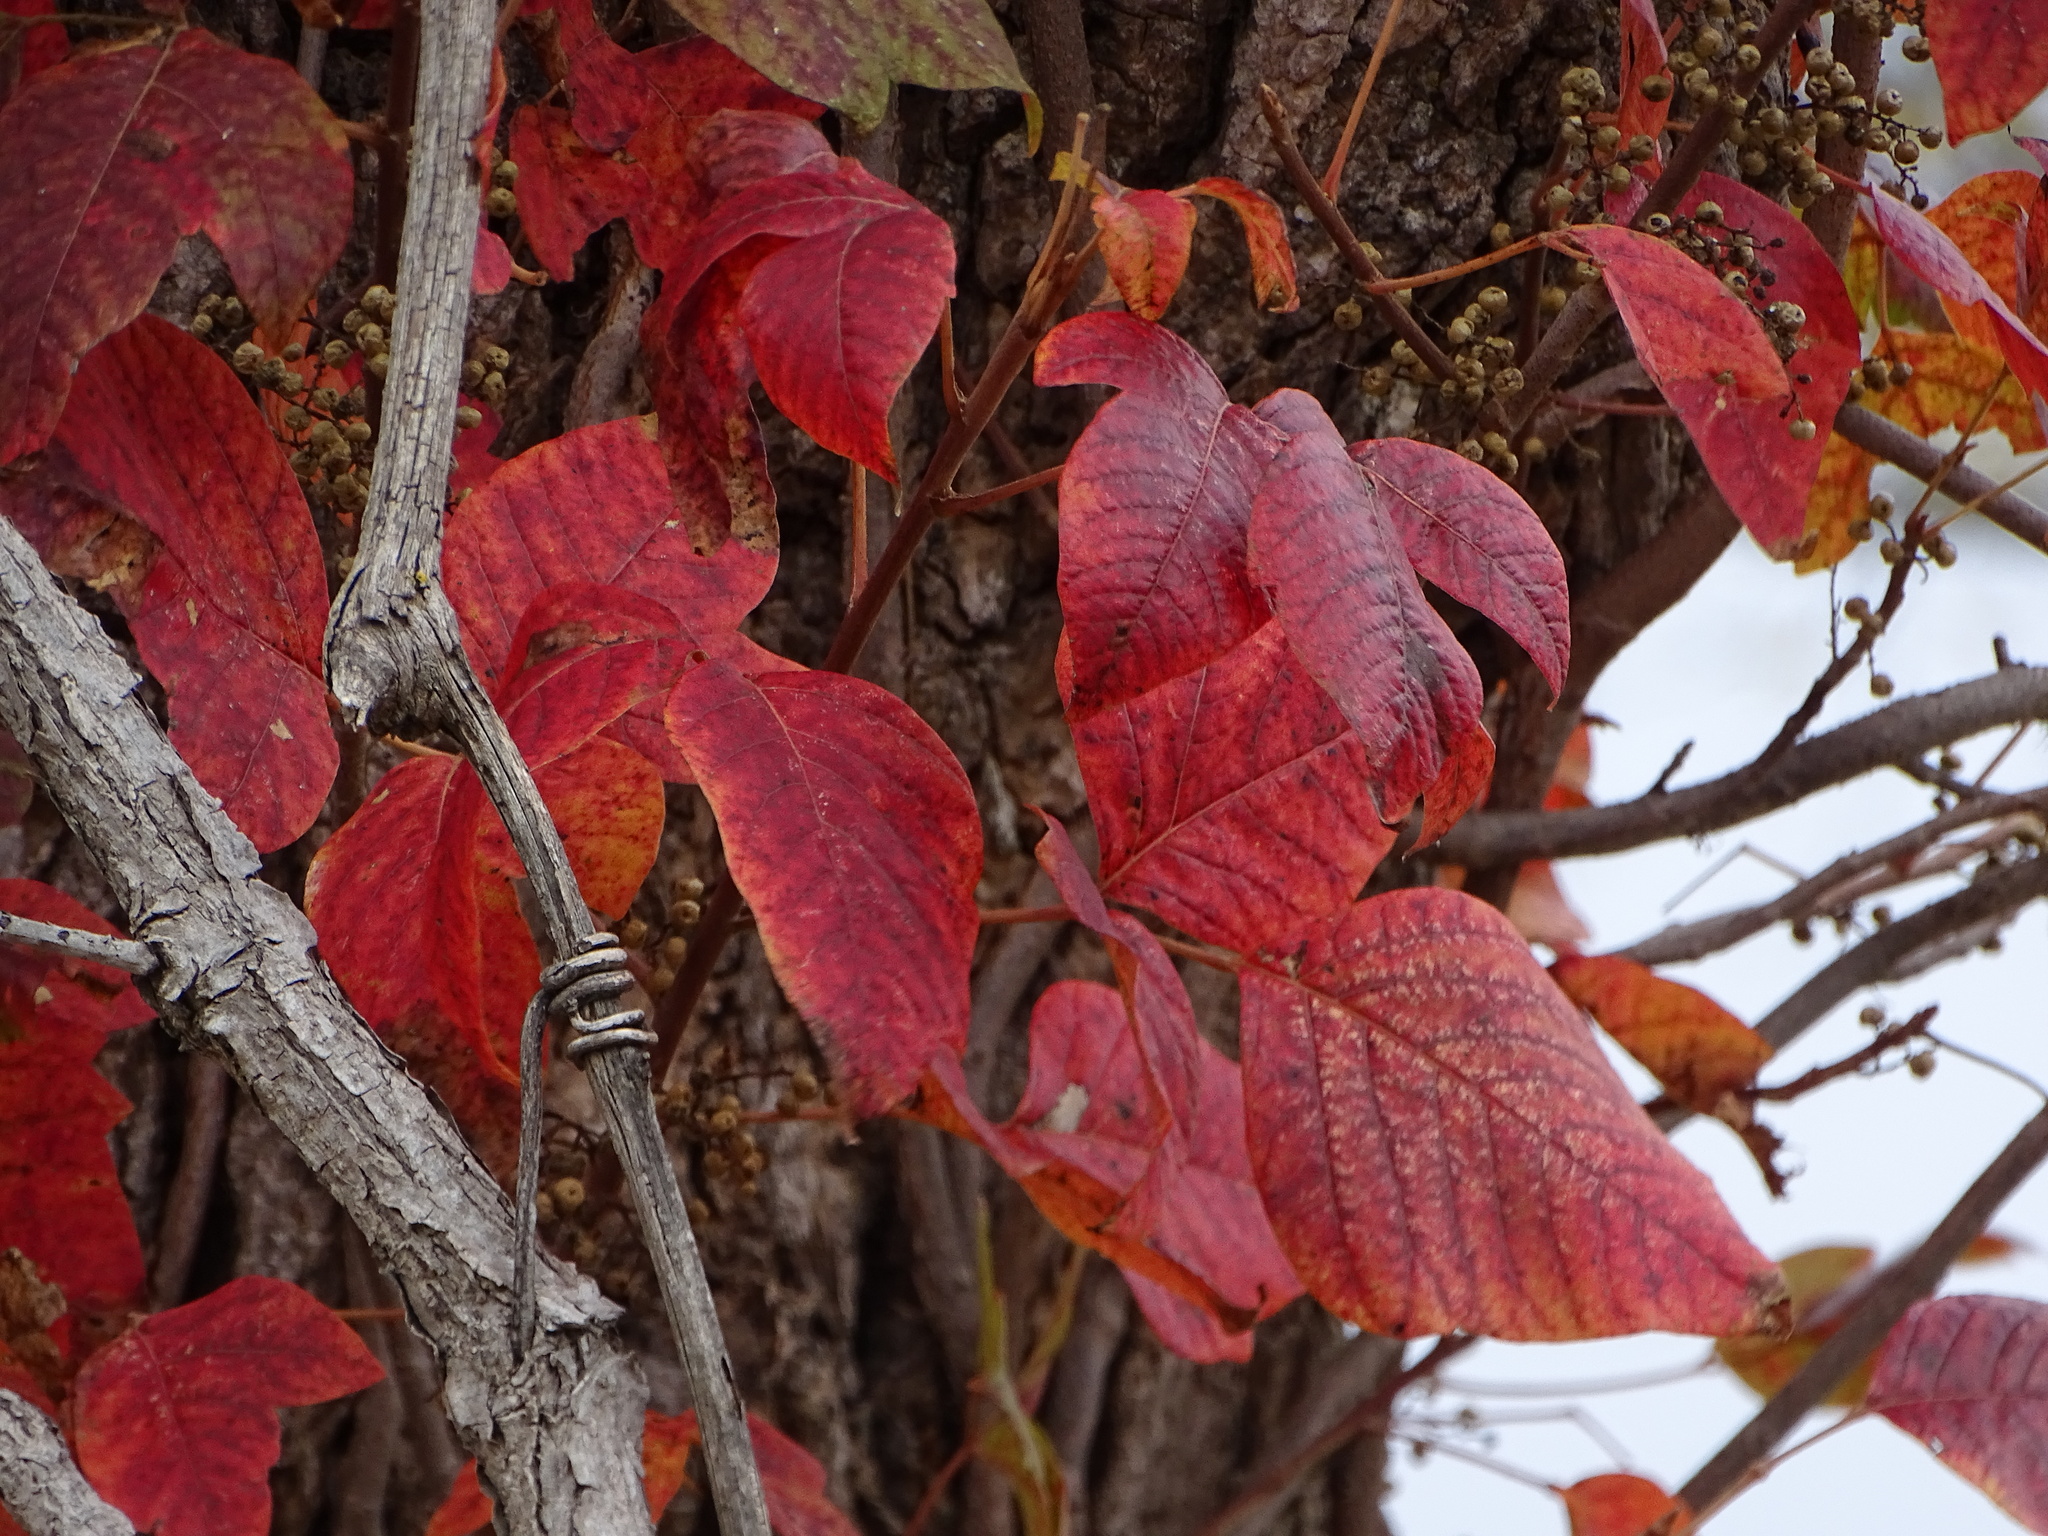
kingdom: Plantae
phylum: Tracheophyta
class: Magnoliopsida
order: Sapindales
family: Anacardiaceae
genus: Toxicodendron
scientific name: Toxicodendron radicans
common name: Poison ivy
